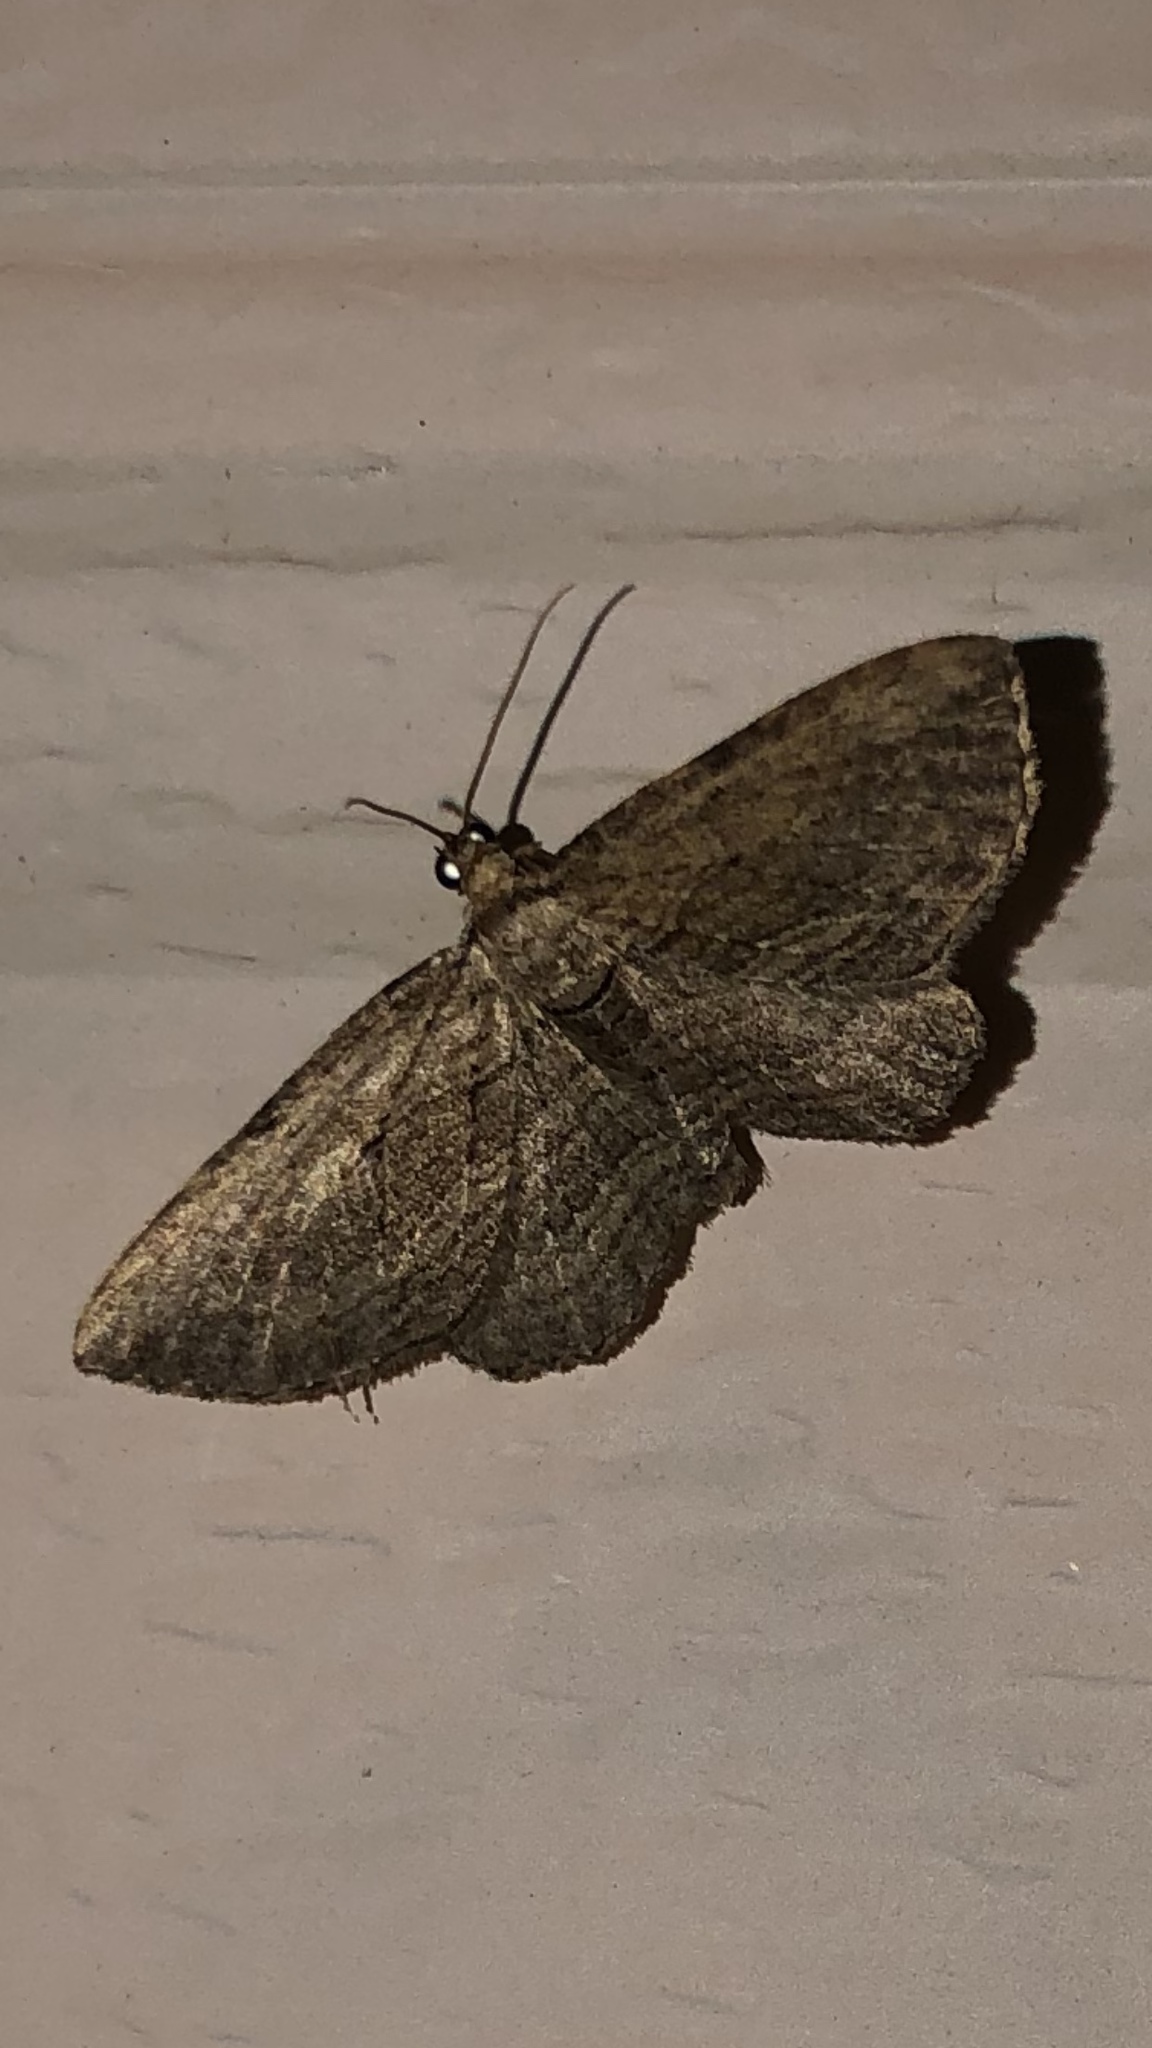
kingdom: Animalia
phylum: Arthropoda
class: Insecta
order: Lepidoptera
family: Geometridae
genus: Horisme
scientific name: Horisme intestinata
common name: Brown bark carpet
